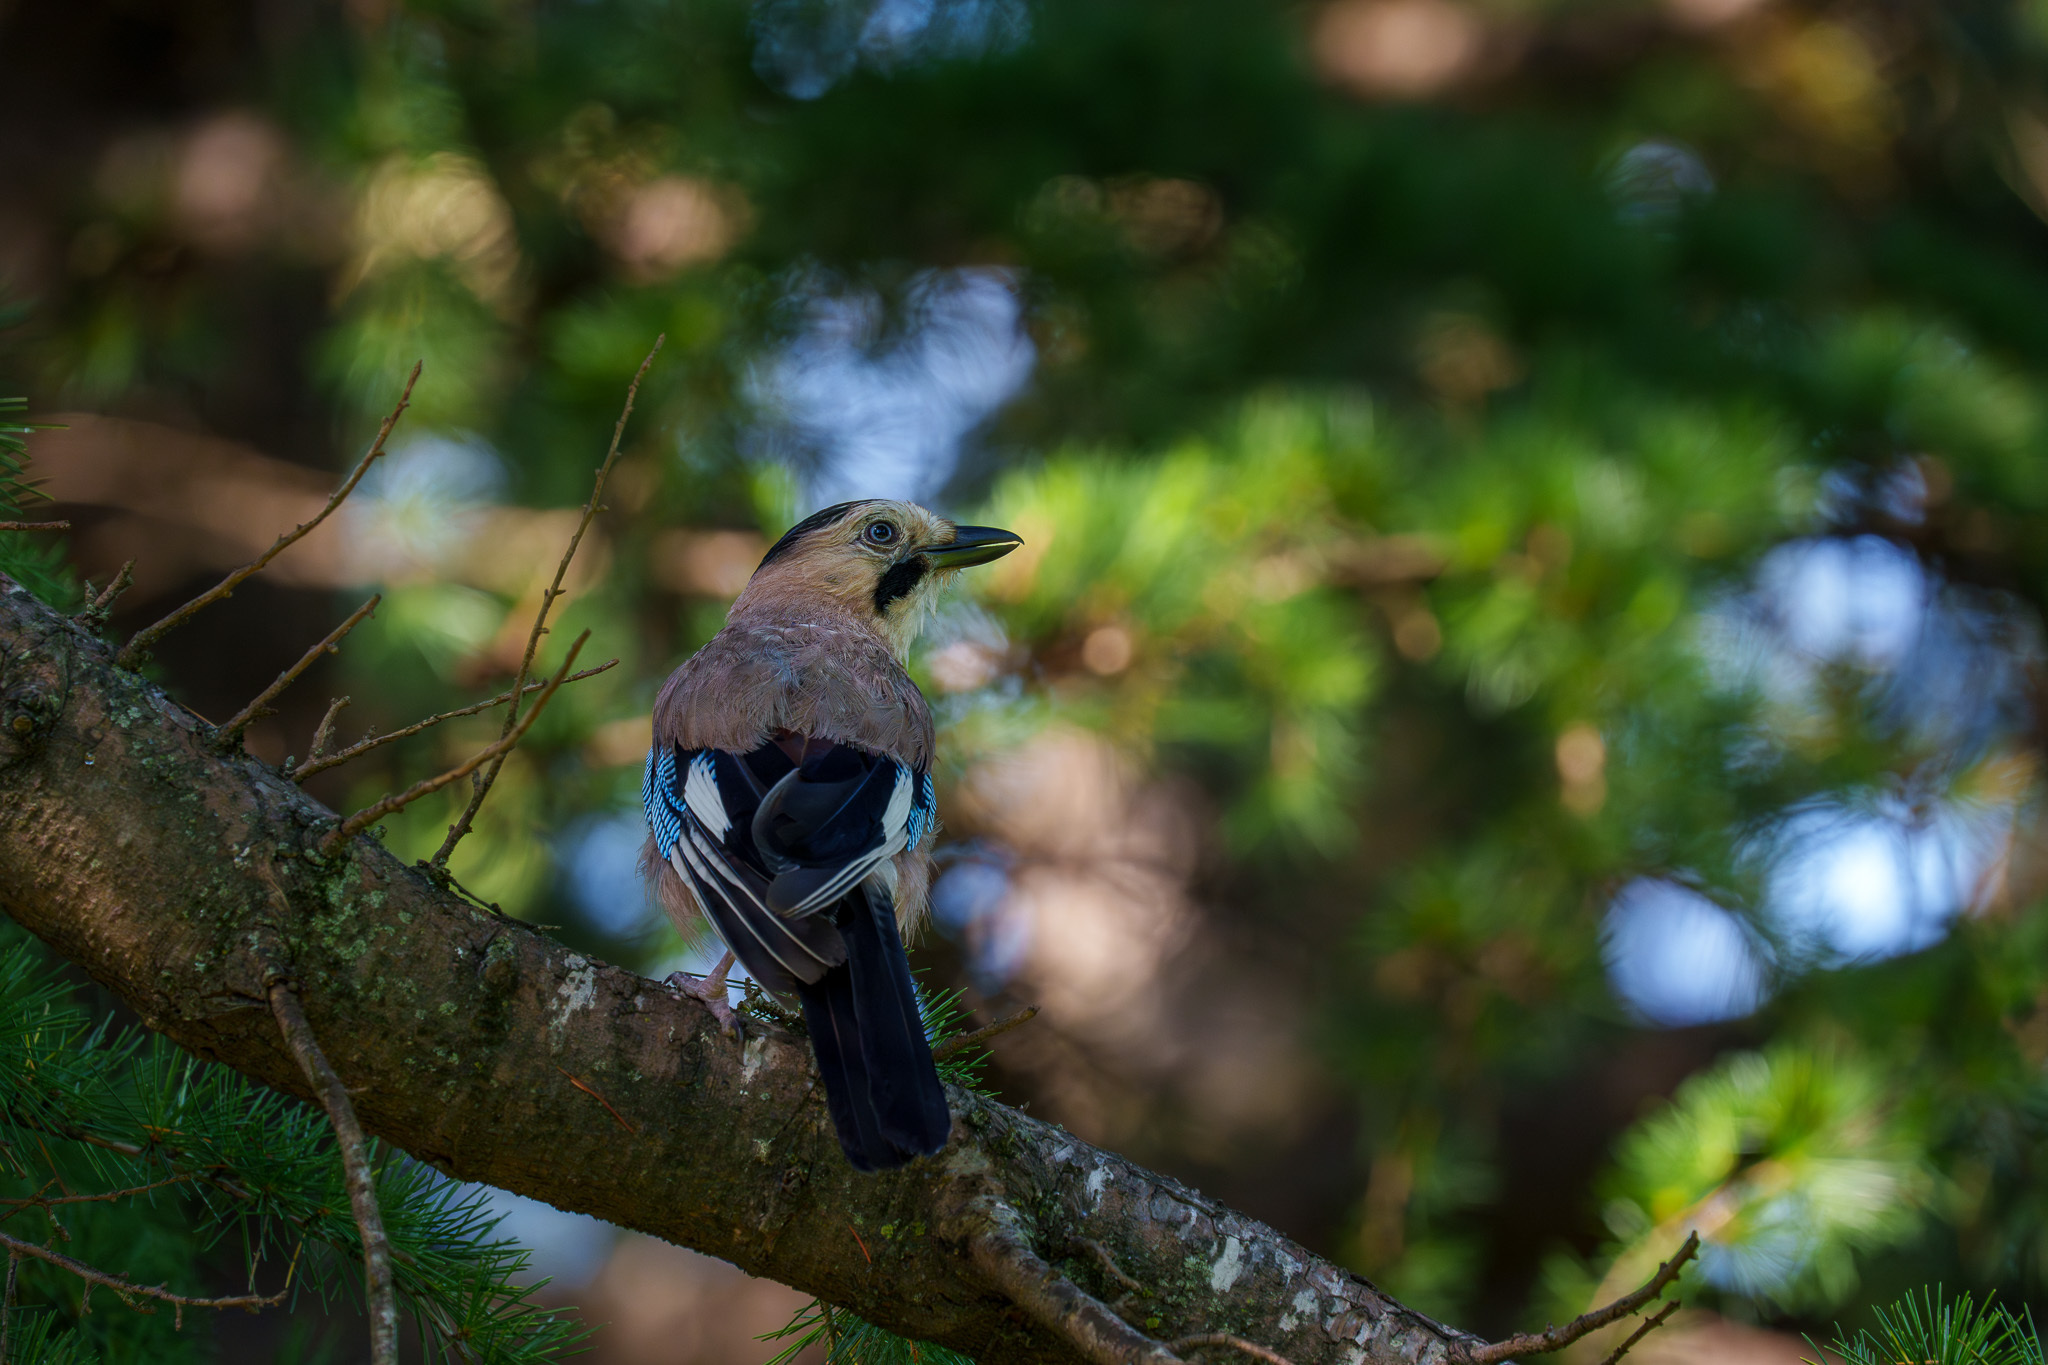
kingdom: Animalia
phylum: Chordata
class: Aves
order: Passeriformes
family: Corvidae
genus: Garrulus
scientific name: Garrulus glandarius
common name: Eurasian jay
